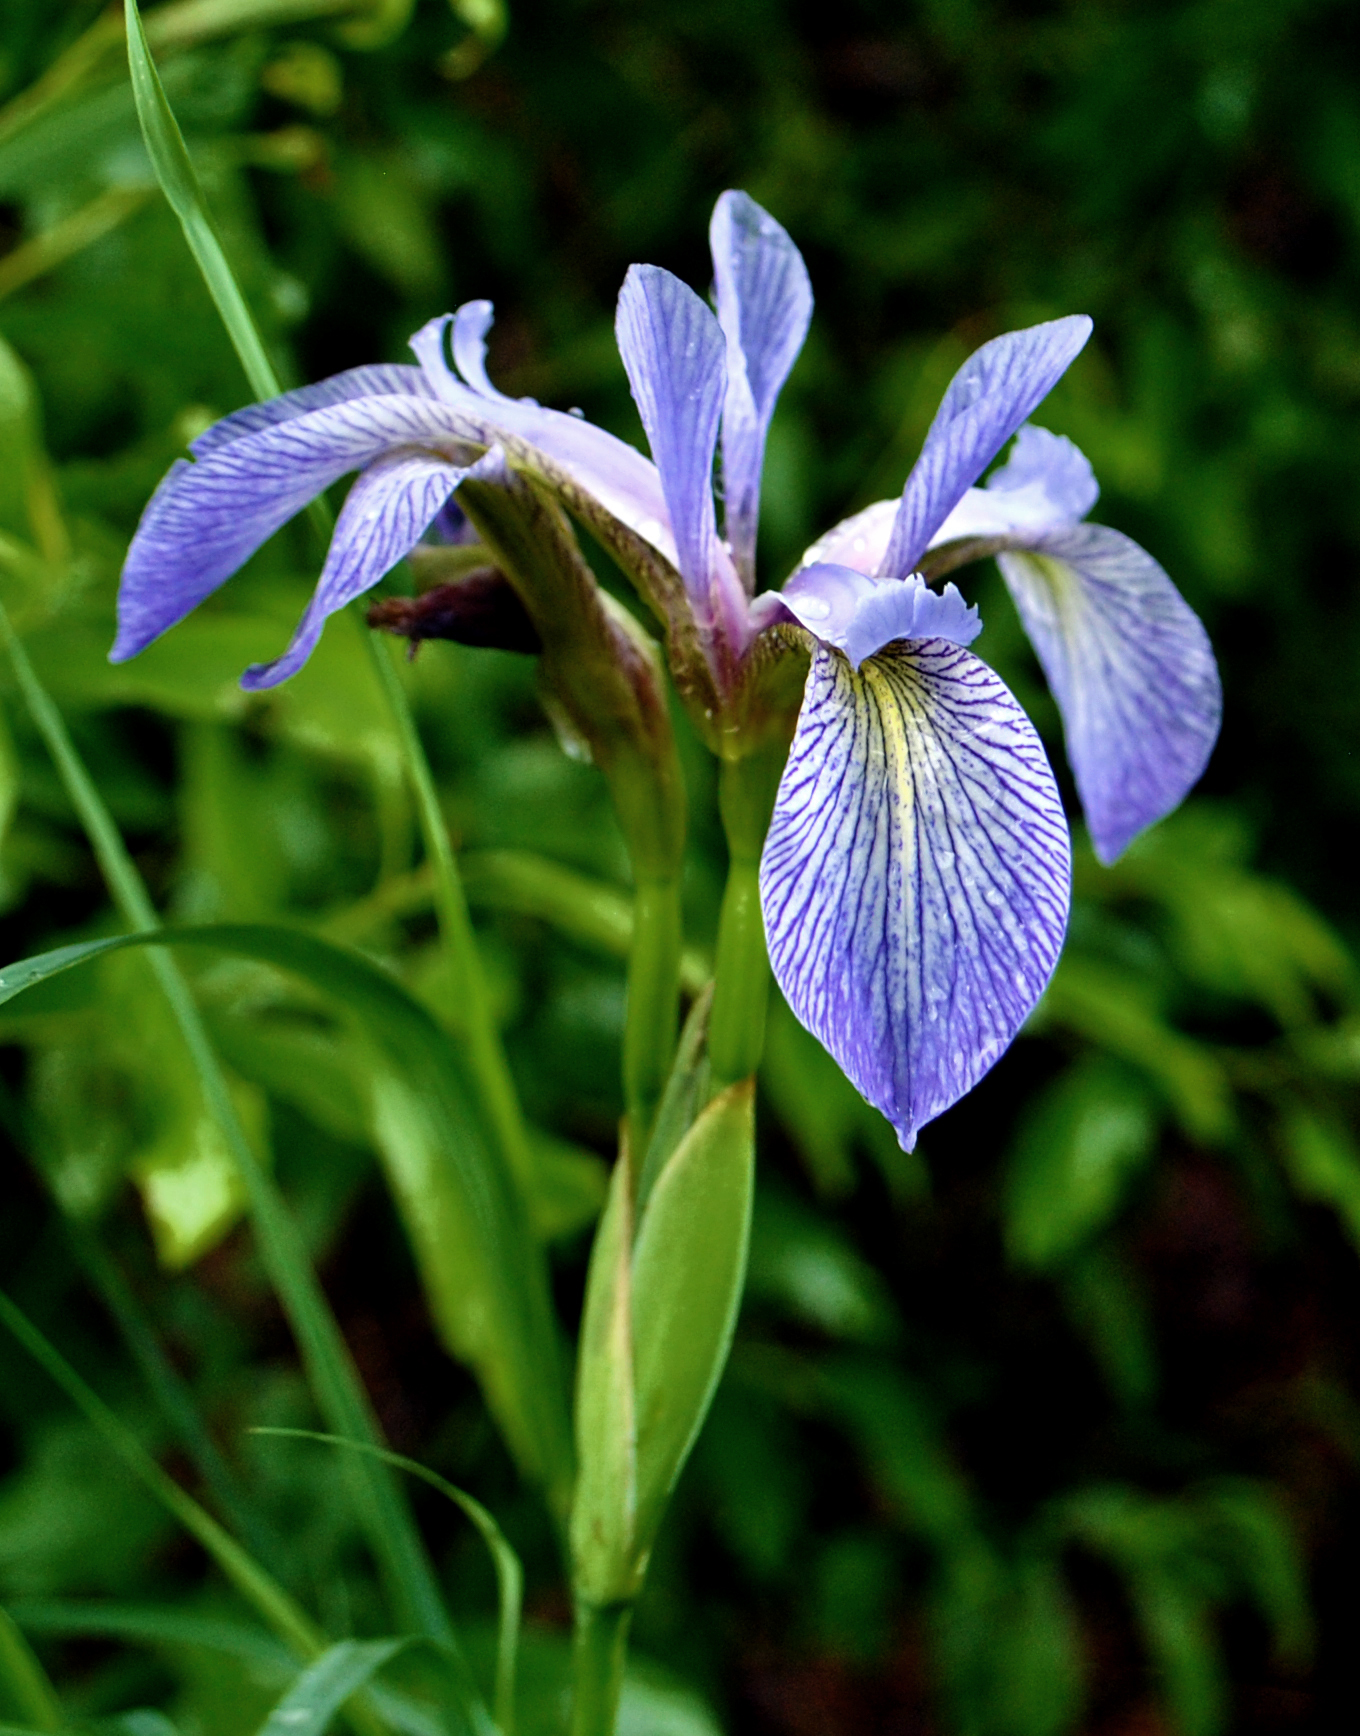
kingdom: Plantae
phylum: Tracheophyta
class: Liliopsida
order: Asparagales
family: Iridaceae
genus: Iris
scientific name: Iris versicolor
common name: Purple iris
